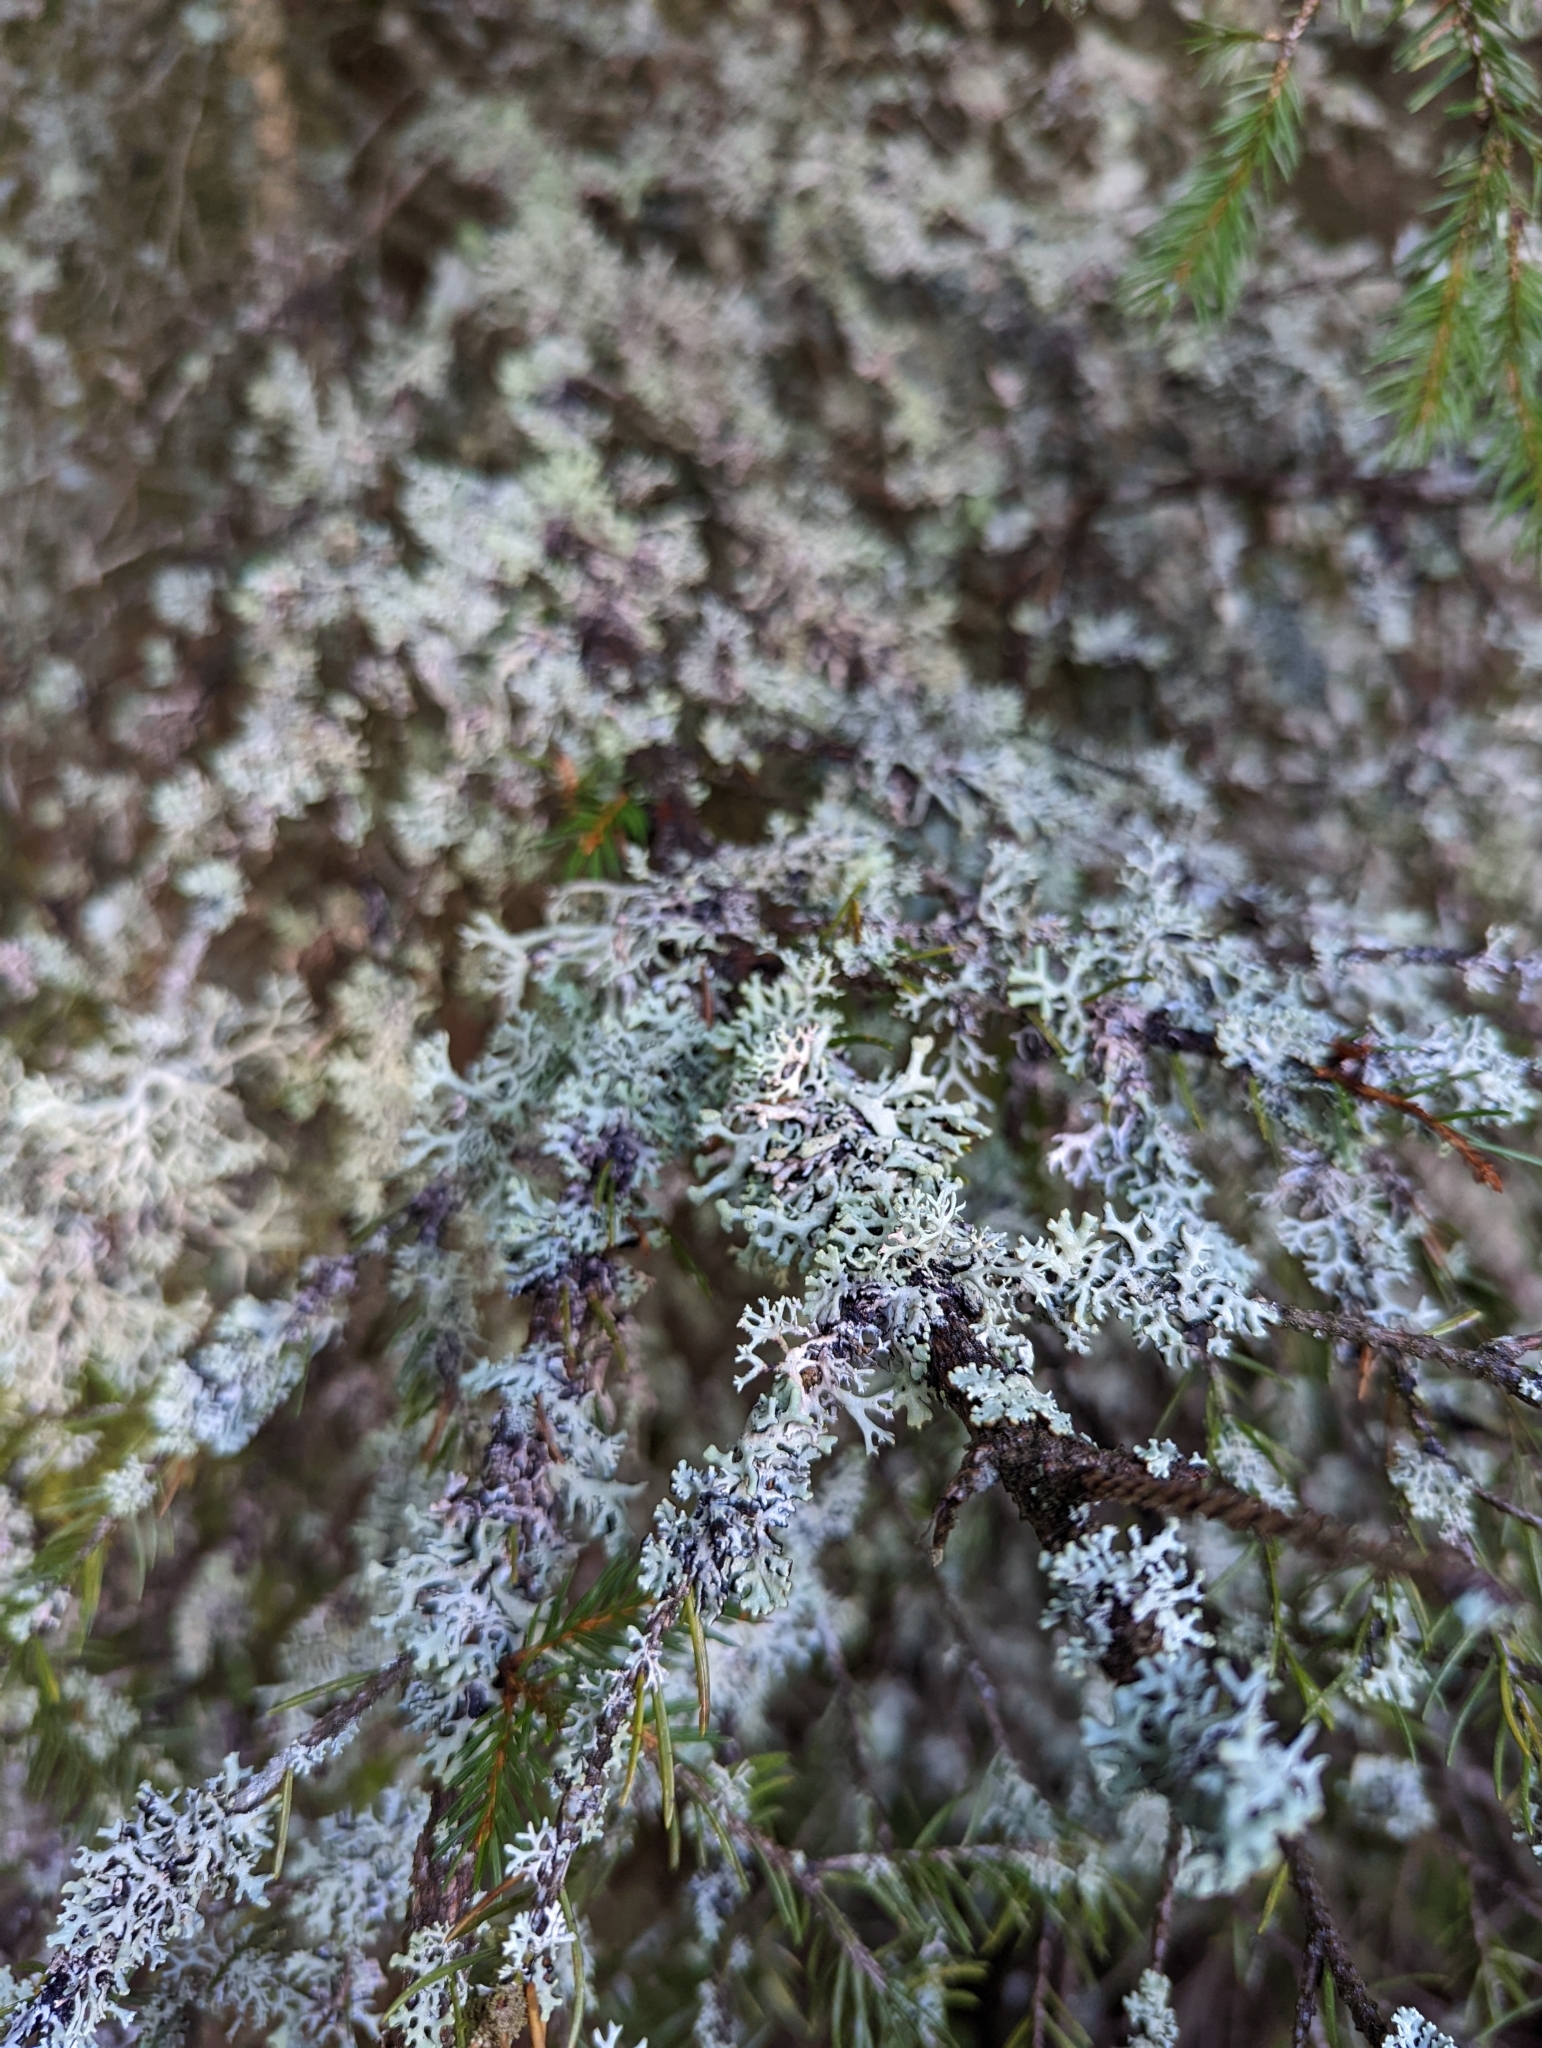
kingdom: Fungi
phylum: Ascomycota
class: Lecanoromycetes
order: Lecanorales
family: Parmeliaceae
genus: Hypogymnia
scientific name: Hypogymnia physodes
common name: Dark crottle
